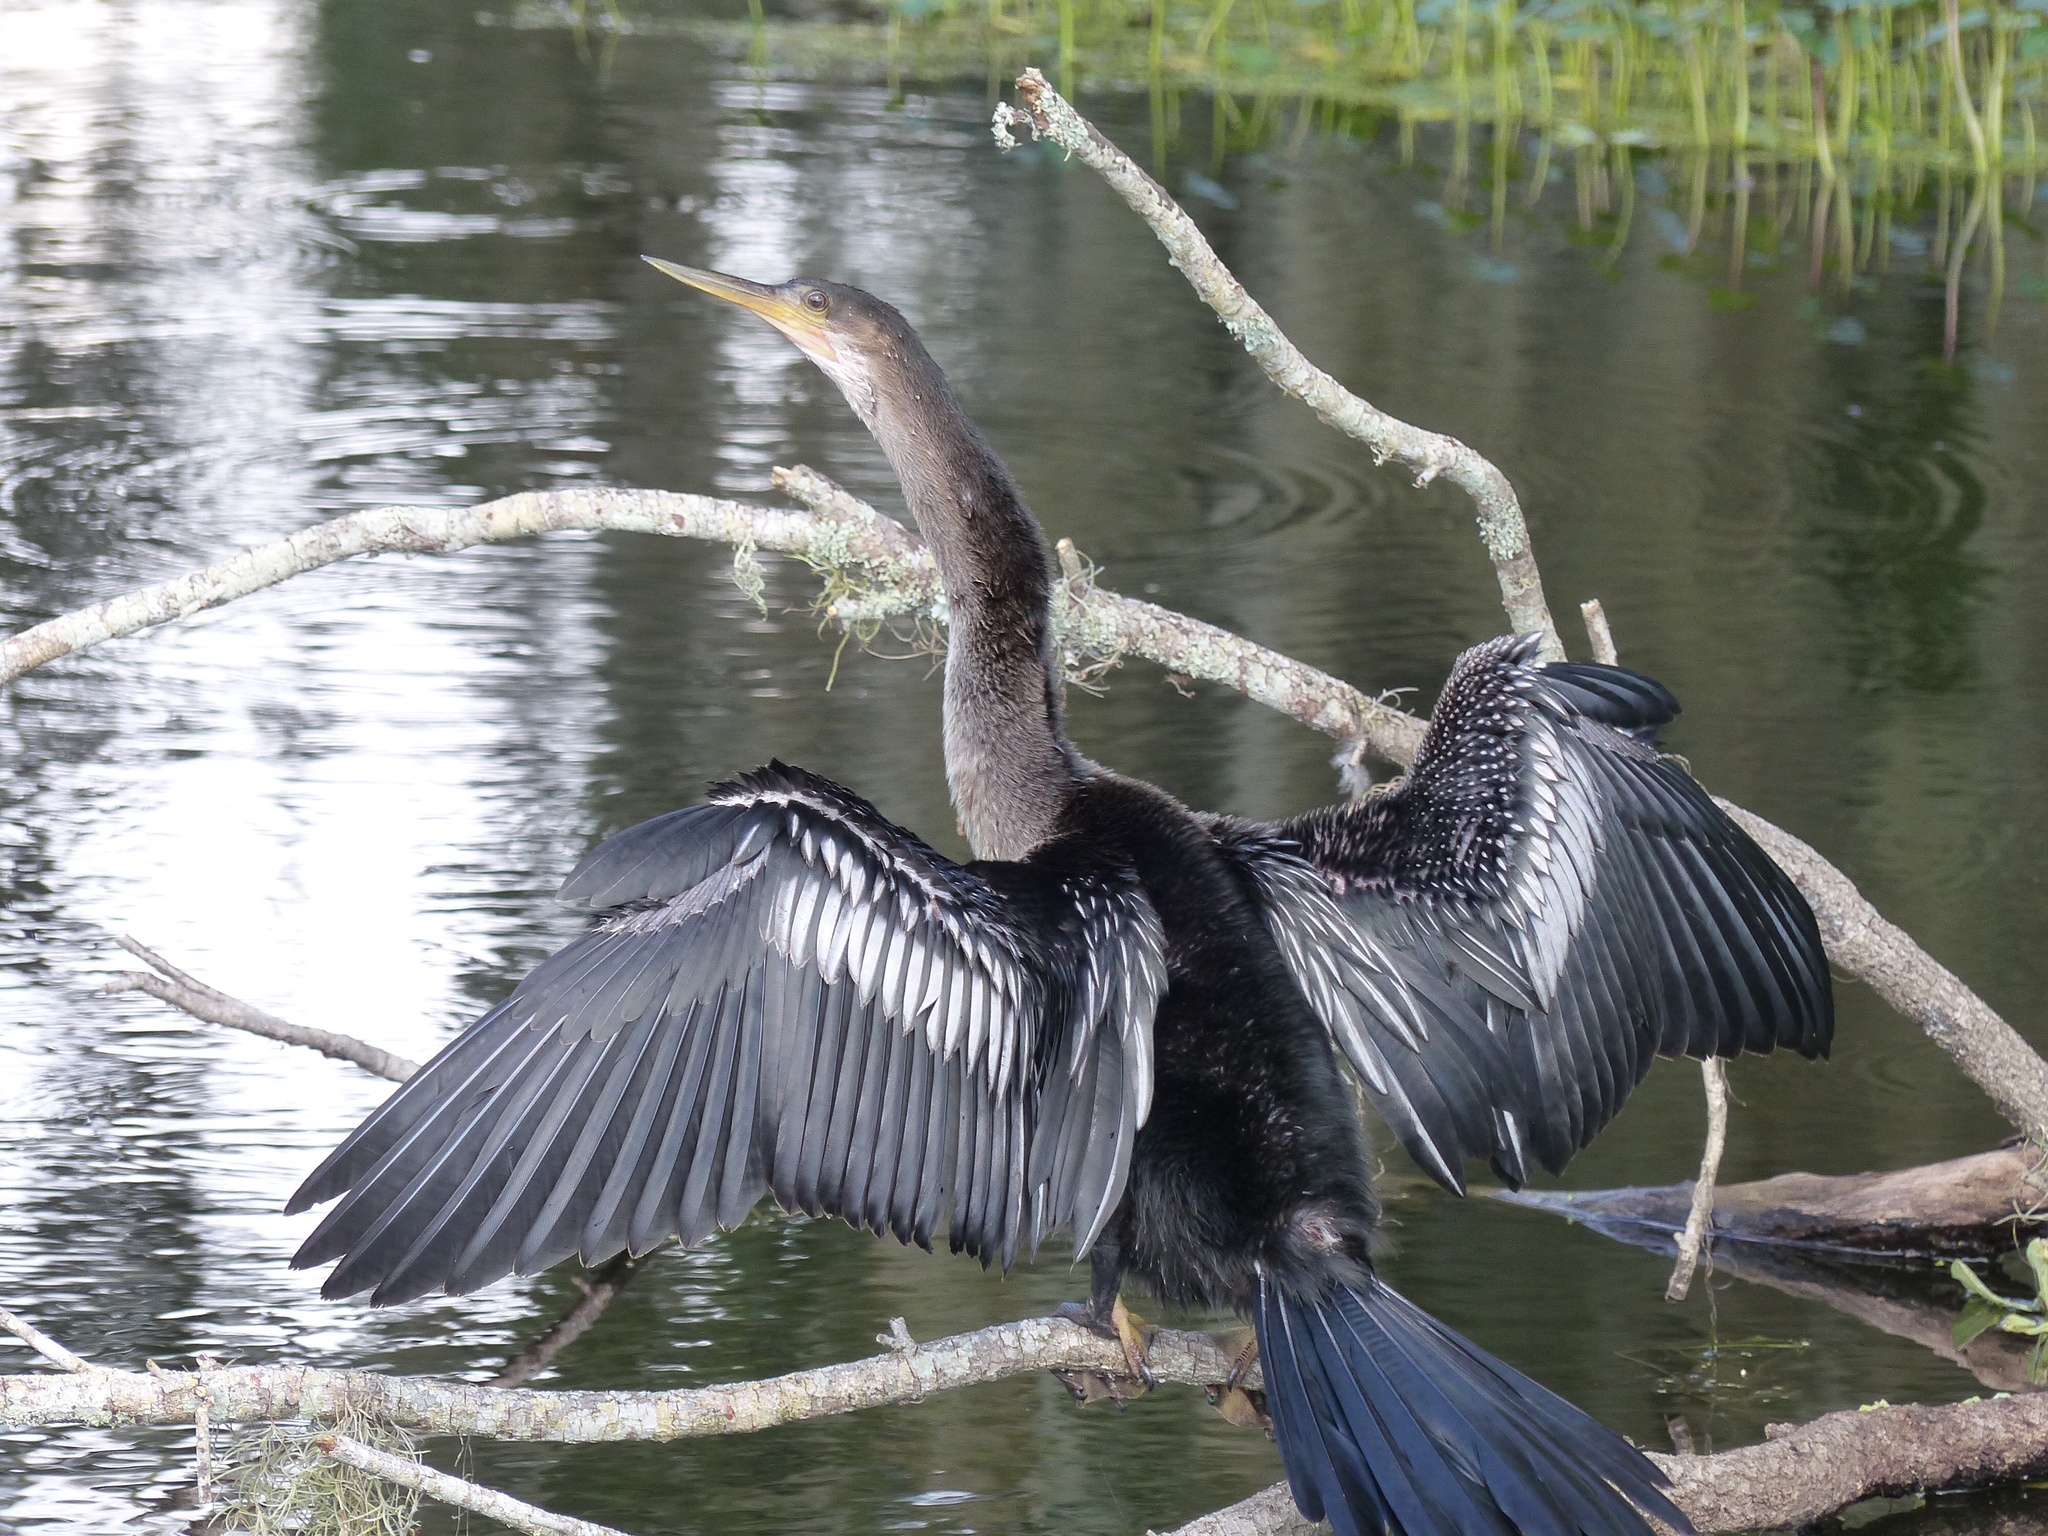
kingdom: Animalia
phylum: Chordata
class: Aves
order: Suliformes
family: Anhingidae
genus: Anhinga
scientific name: Anhinga anhinga
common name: Anhinga
